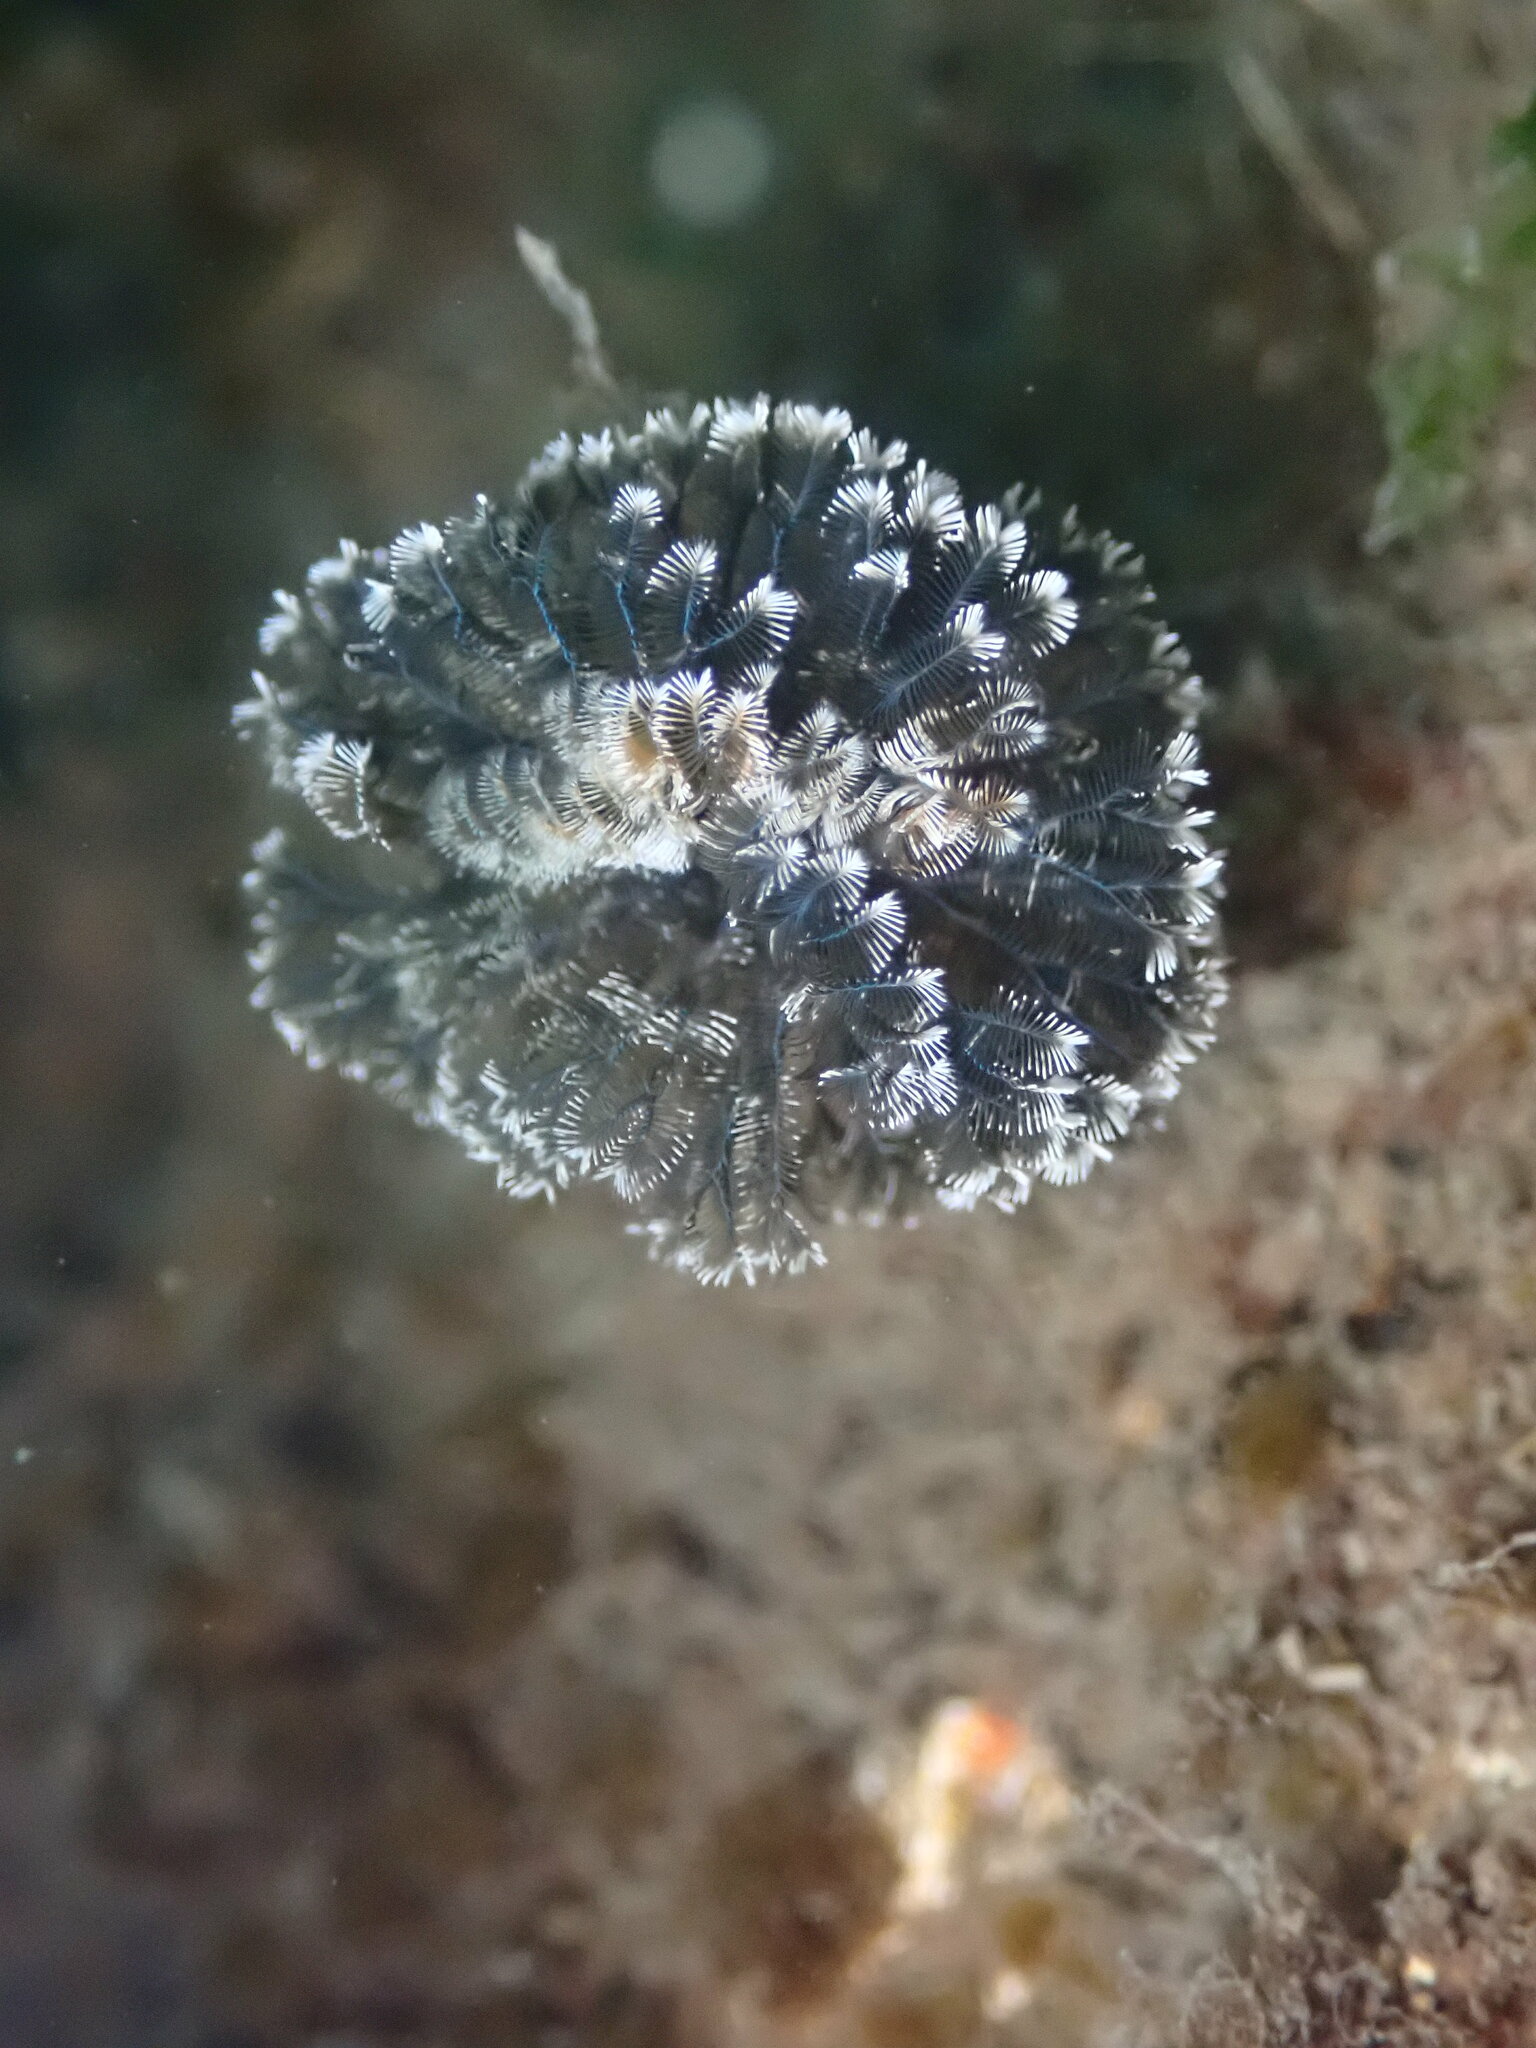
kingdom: Animalia
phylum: Annelida
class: Polychaeta
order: Sabellida
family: Sabellidae
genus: Schizobranchia
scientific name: Schizobranchia insignis
